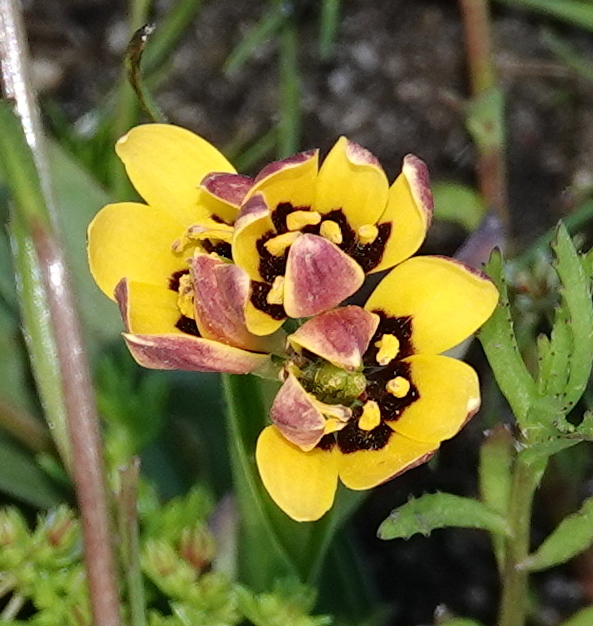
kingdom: Plantae
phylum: Tracheophyta
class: Liliopsida
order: Liliales
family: Colchicaceae
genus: Baeometra
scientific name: Baeometra uniflora
